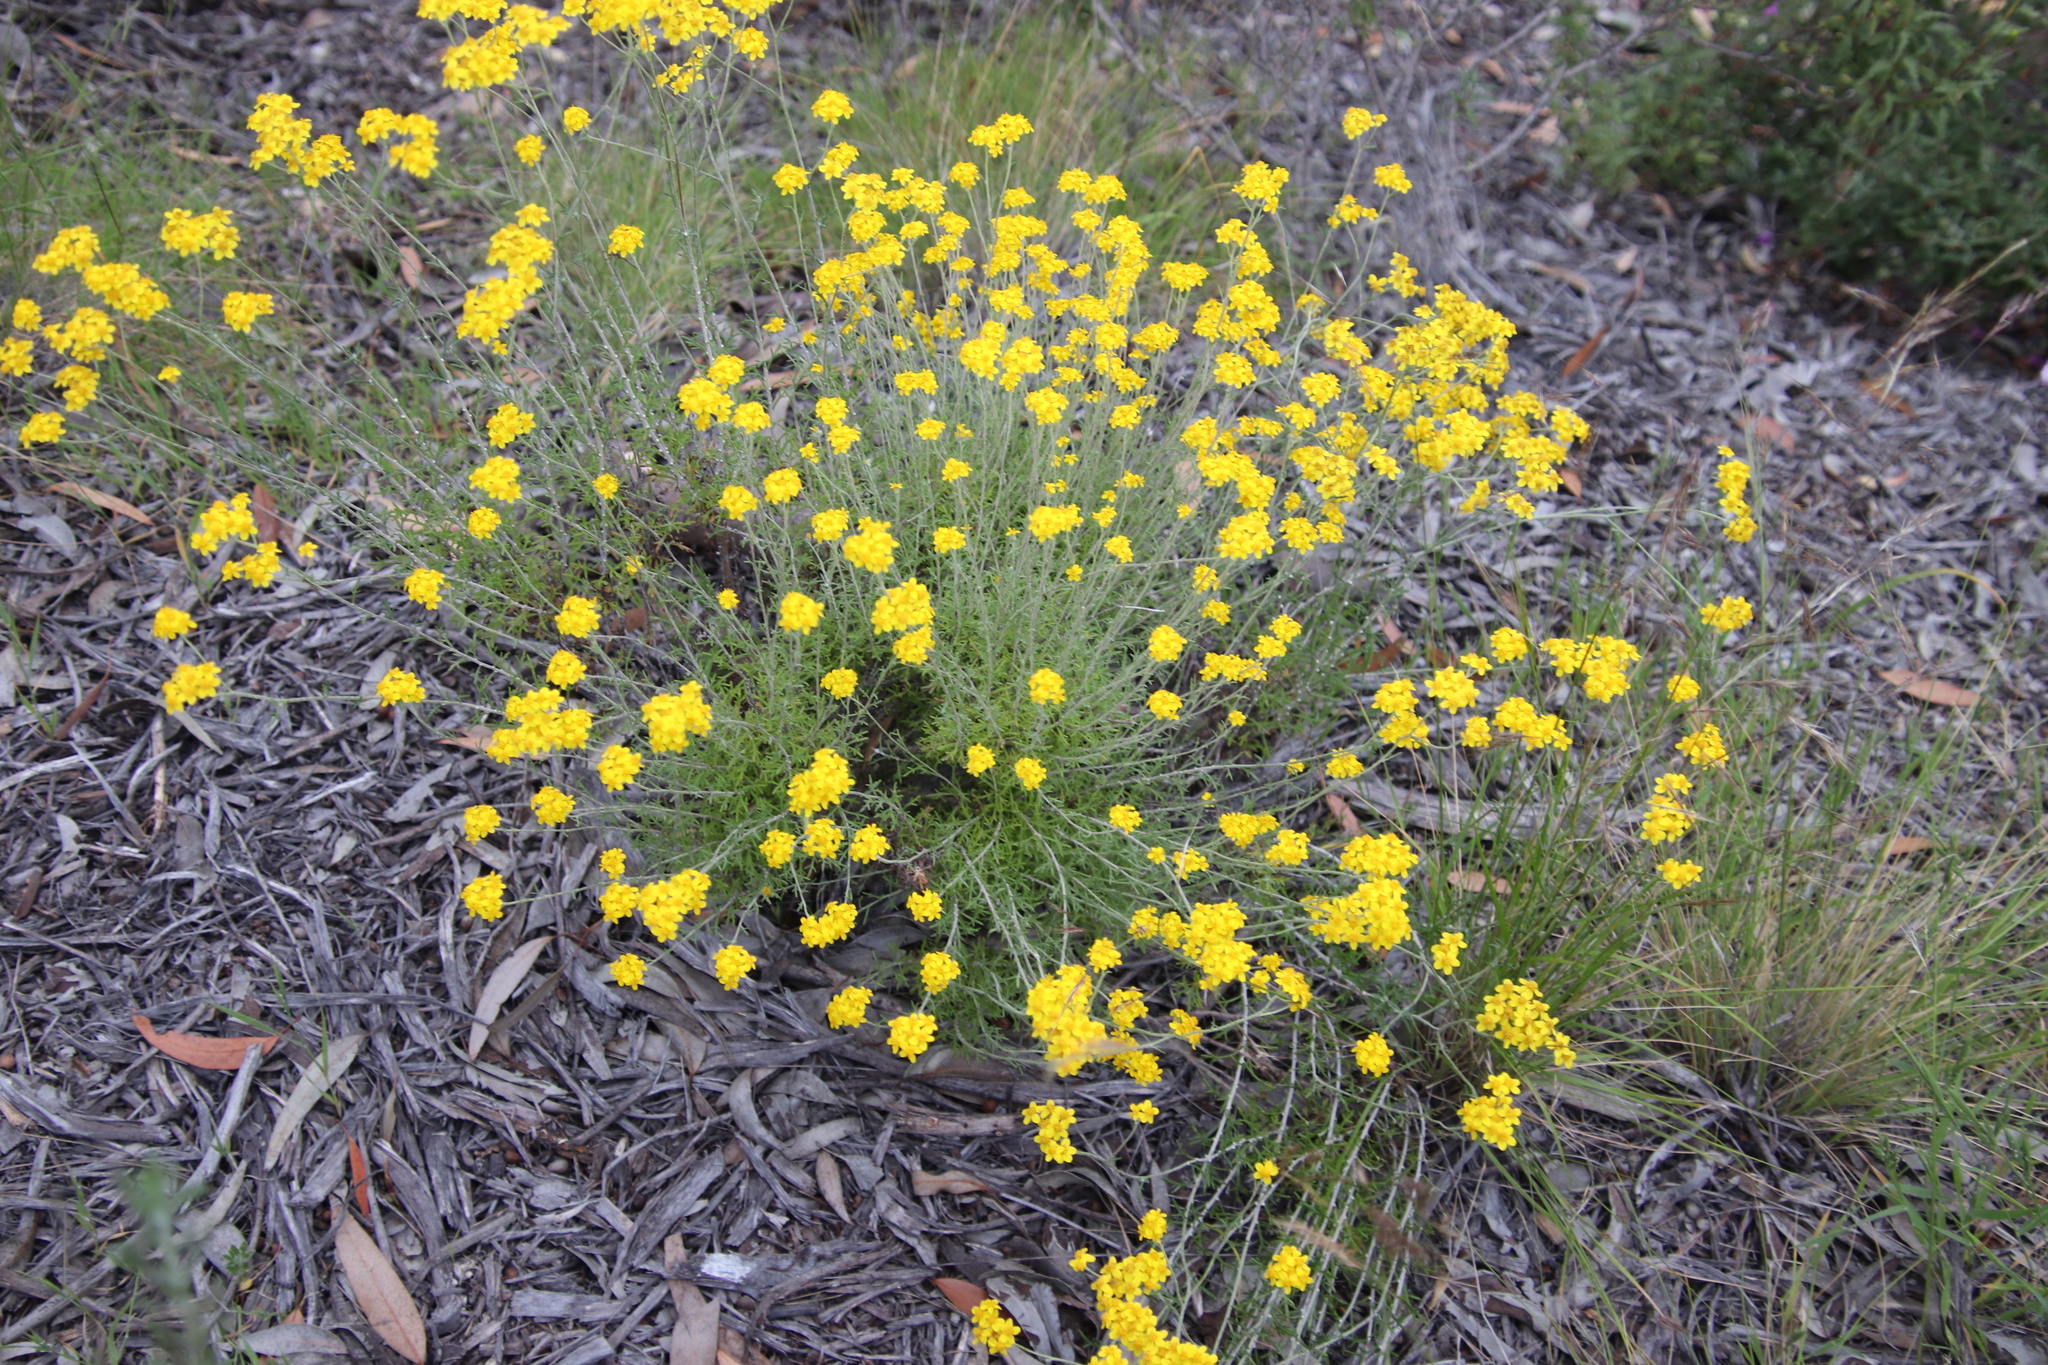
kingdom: Plantae
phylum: Tracheophyta
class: Magnoliopsida
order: Asterales
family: Asteraceae
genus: Eriophyllum
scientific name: Eriophyllum confertiflorum
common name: Golden-yarrow
